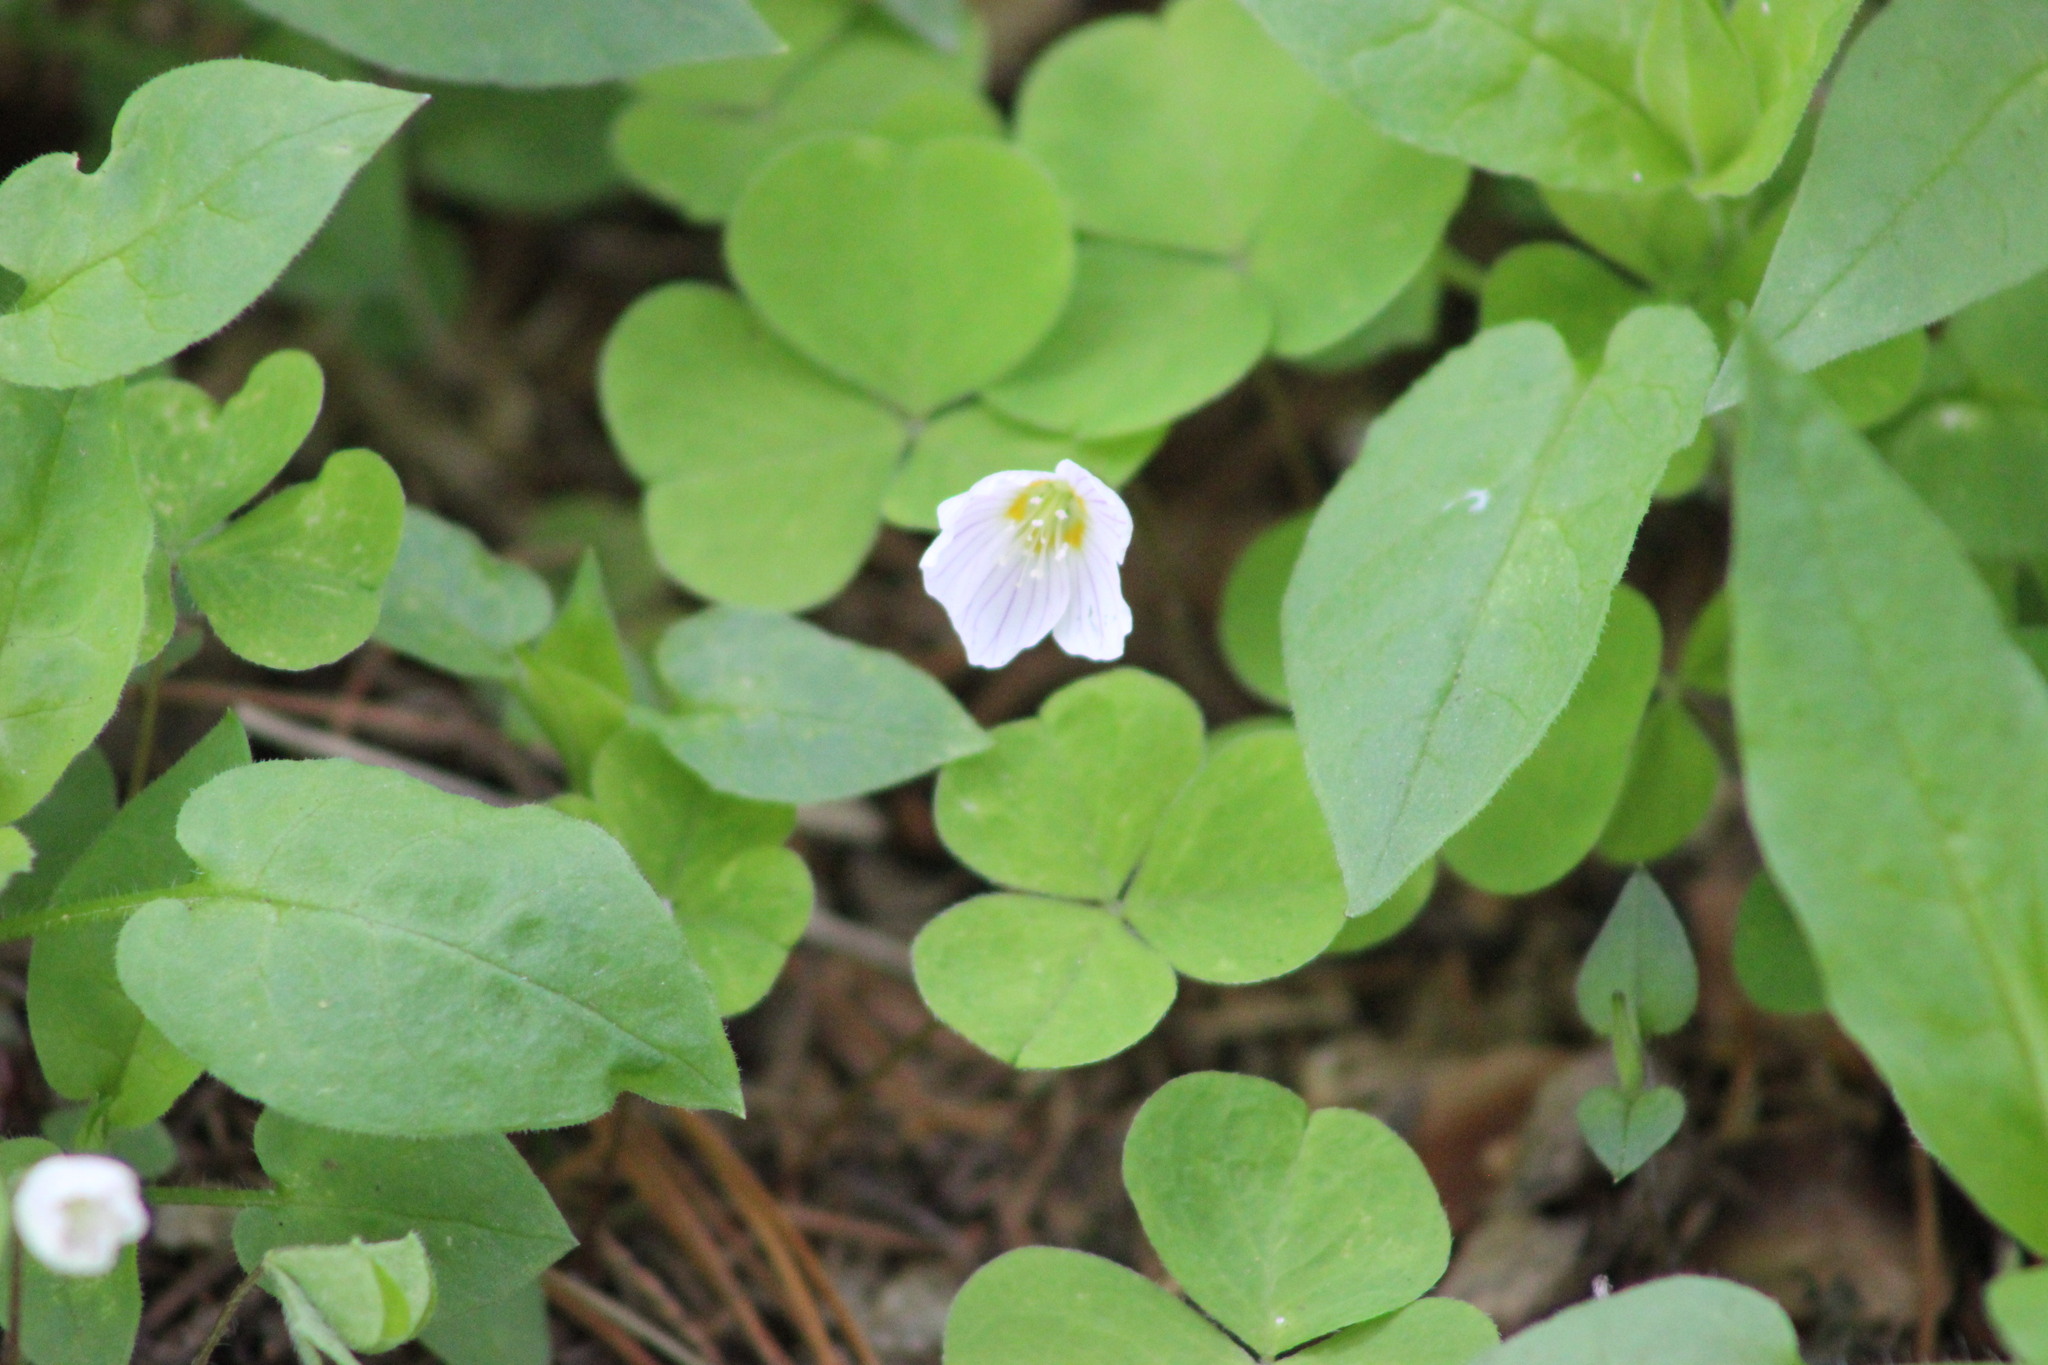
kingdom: Plantae
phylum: Tracheophyta
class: Magnoliopsida
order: Oxalidales
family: Oxalidaceae
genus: Oxalis
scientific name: Oxalis acetosella
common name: Wood-sorrel
